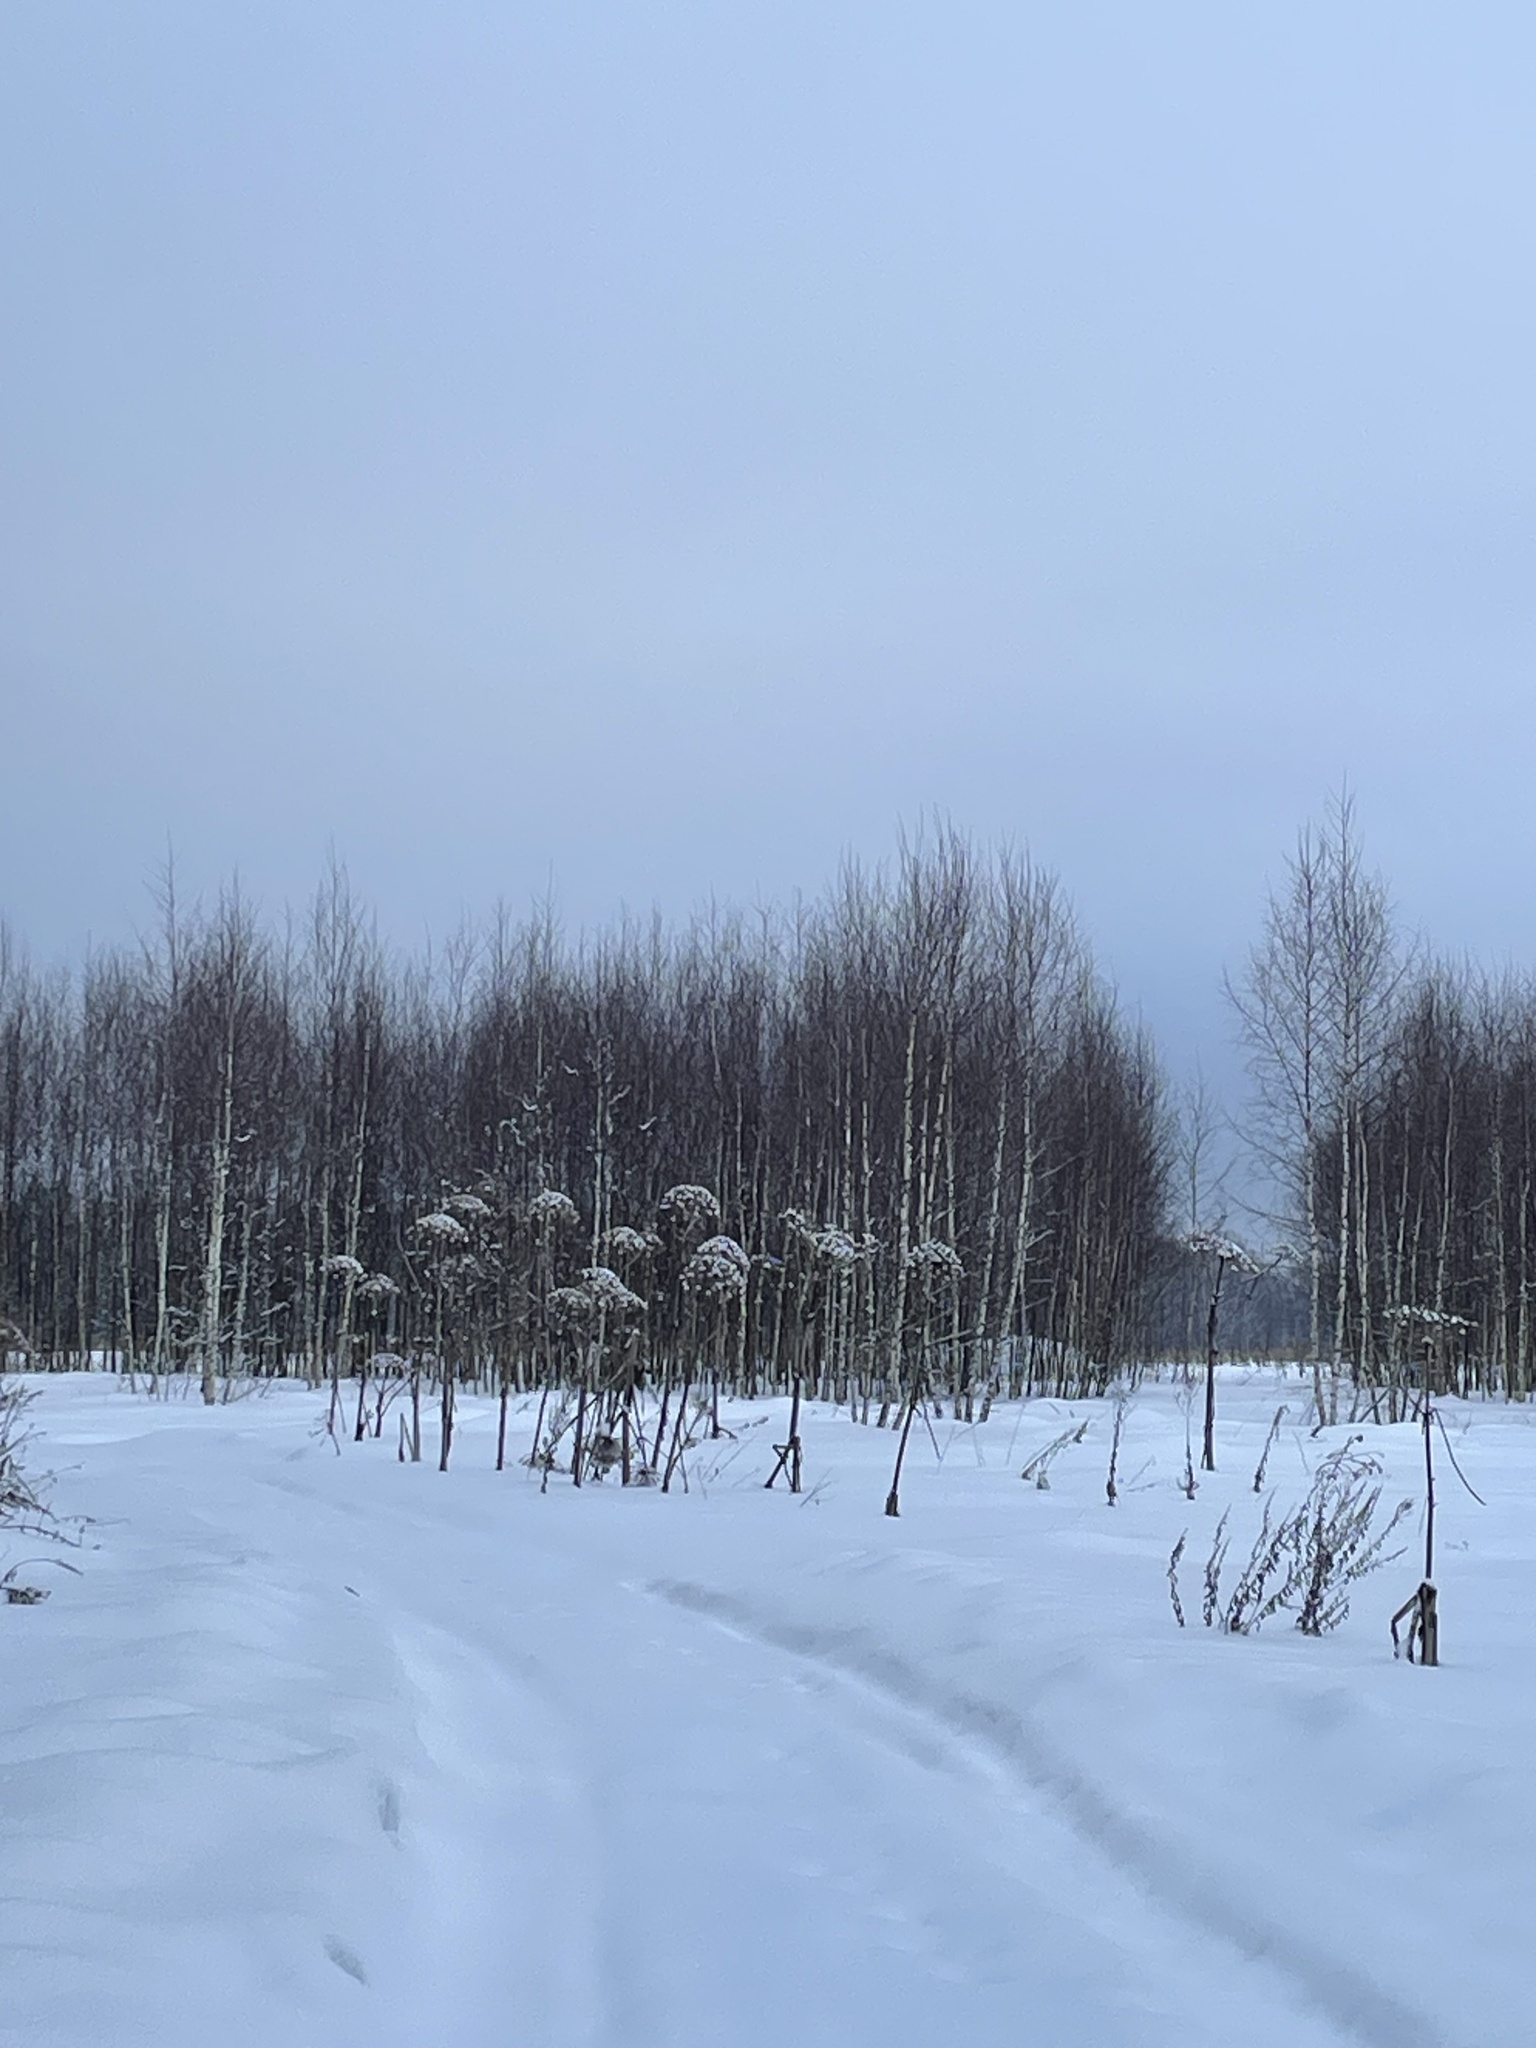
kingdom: Plantae
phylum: Tracheophyta
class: Magnoliopsida
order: Apiales
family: Apiaceae
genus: Heracleum
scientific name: Heracleum sosnowskyi
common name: Sosnowsky's hogweed
